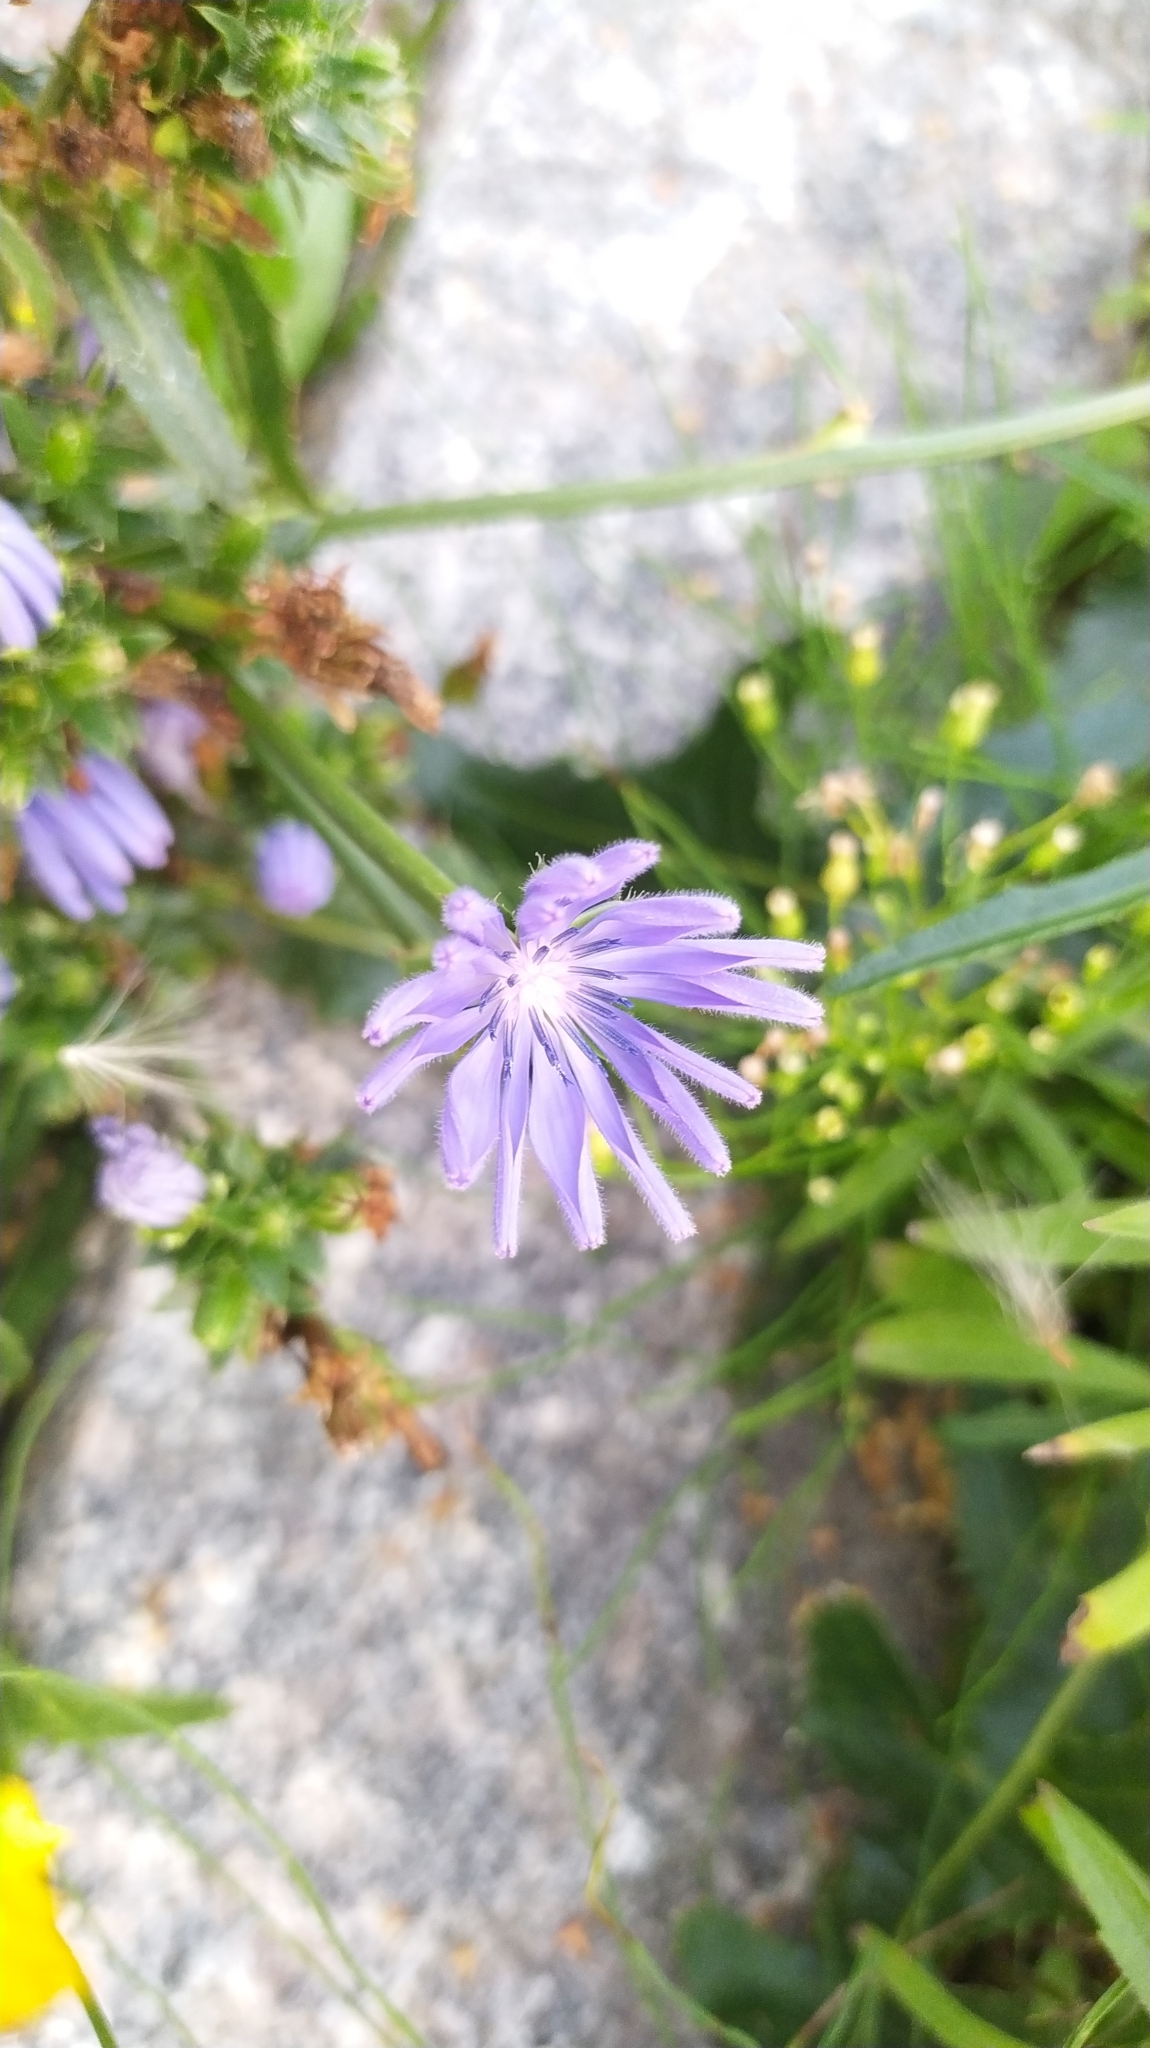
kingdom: Plantae
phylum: Tracheophyta
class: Magnoliopsida
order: Asterales
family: Asteraceae
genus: Cichorium
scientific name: Cichorium intybus
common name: Chicory
